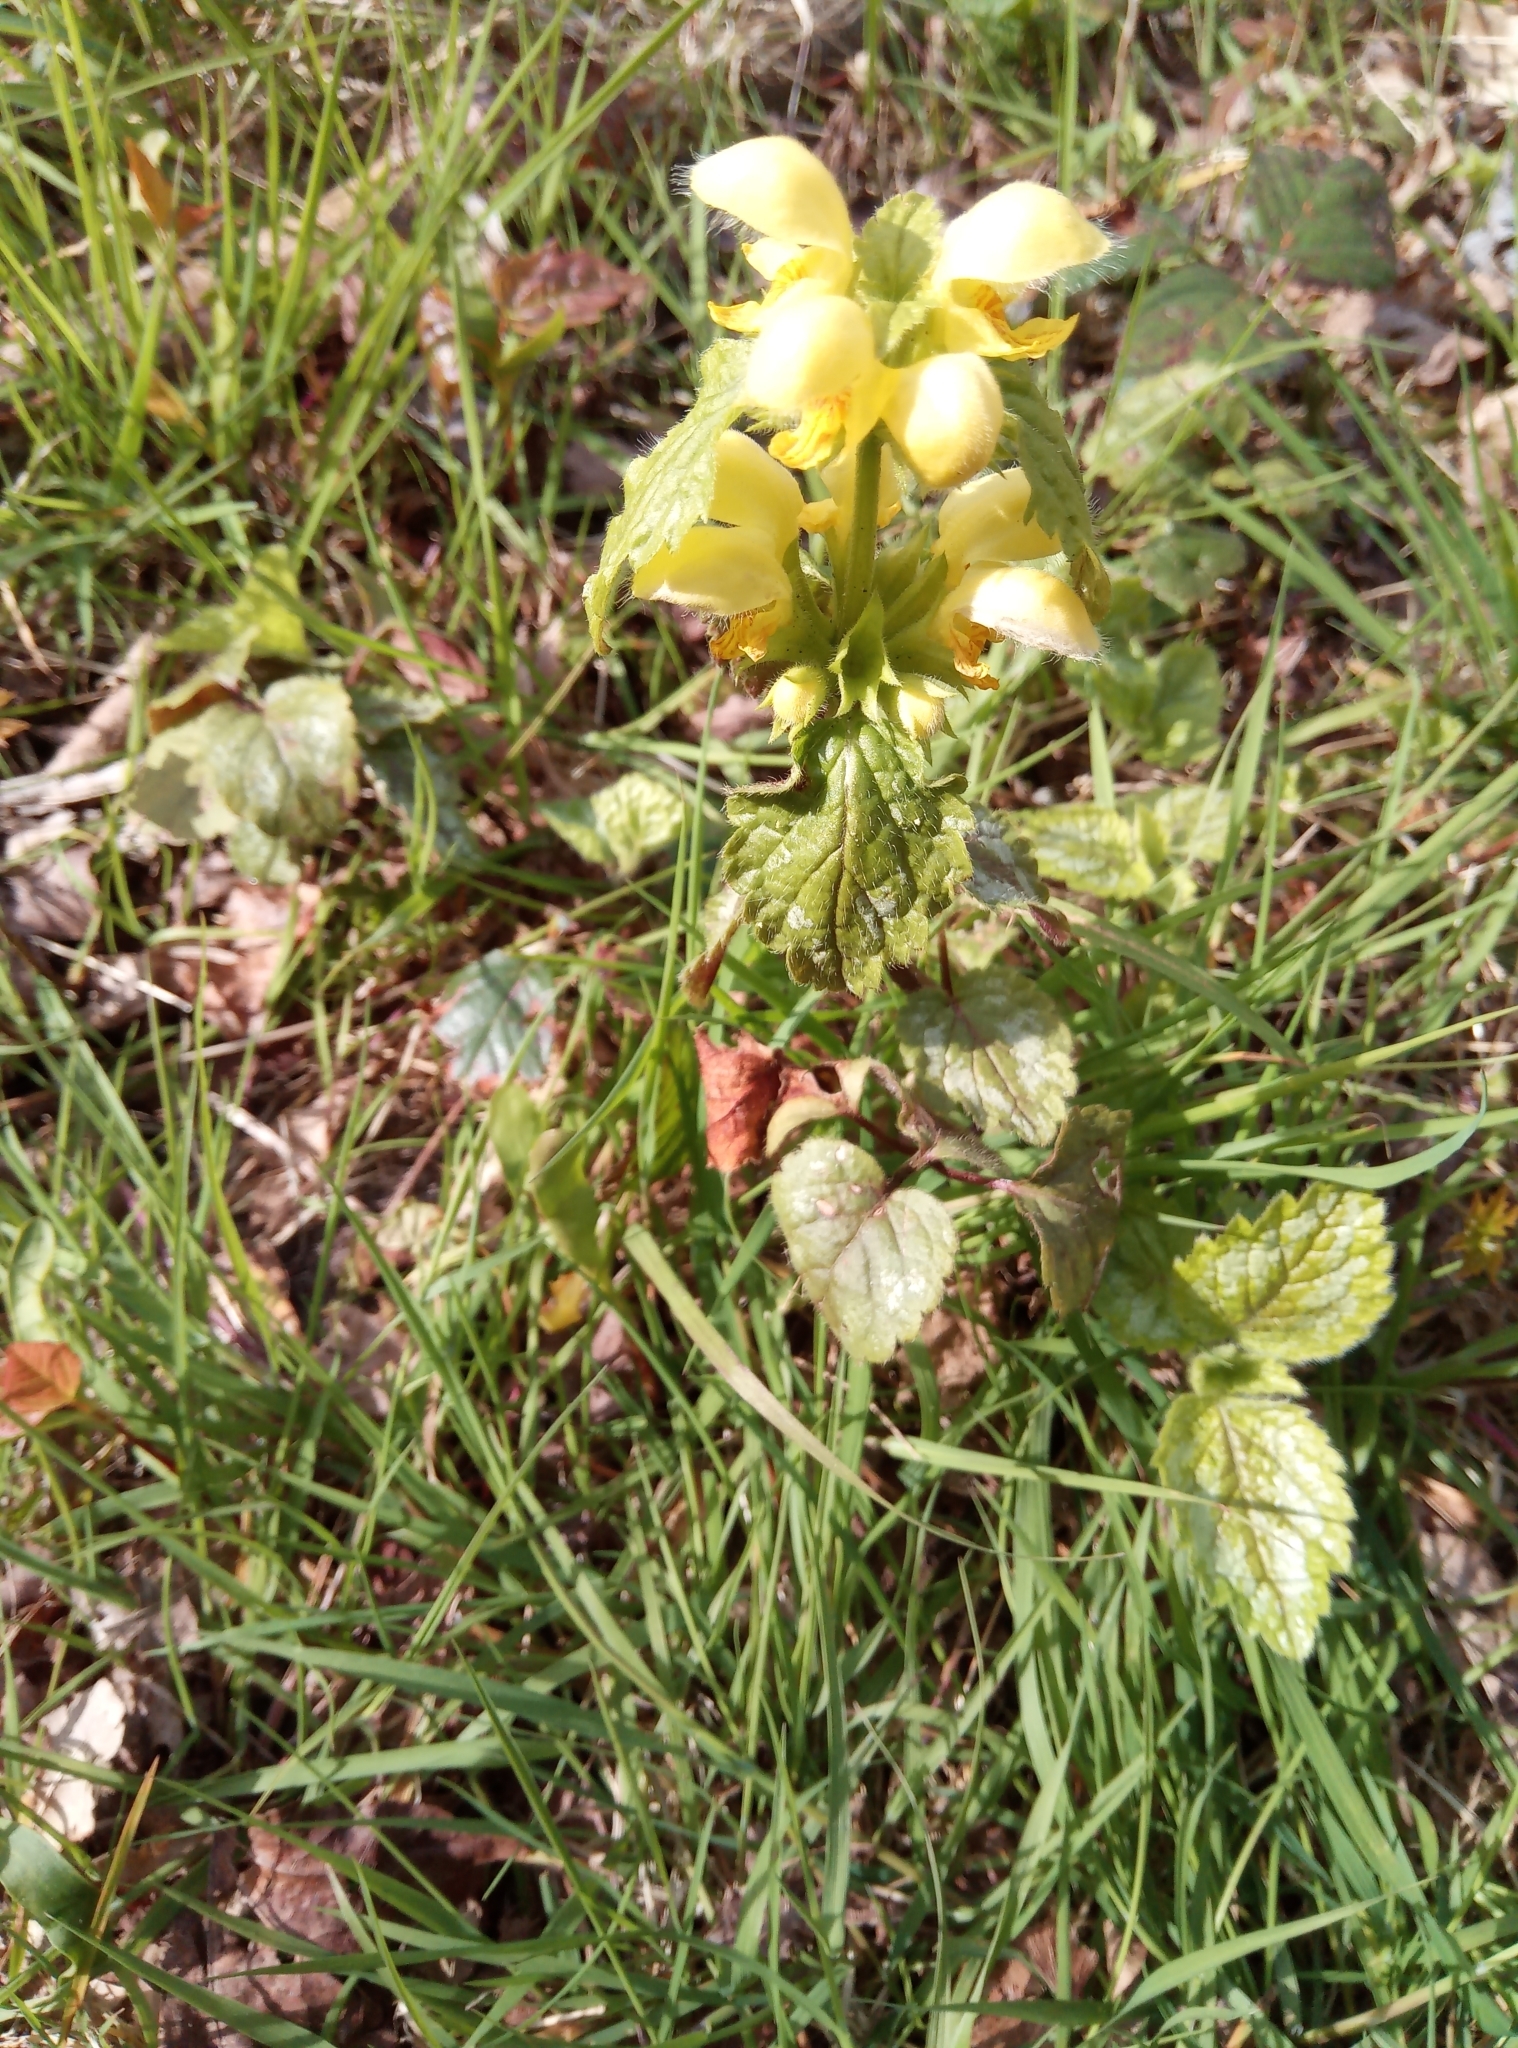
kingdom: Plantae
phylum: Tracheophyta
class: Magnoliopsida
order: Lamiales
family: Lamiaceae
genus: Lamium
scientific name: Lamium galeobdolon
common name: Yellow archangel
